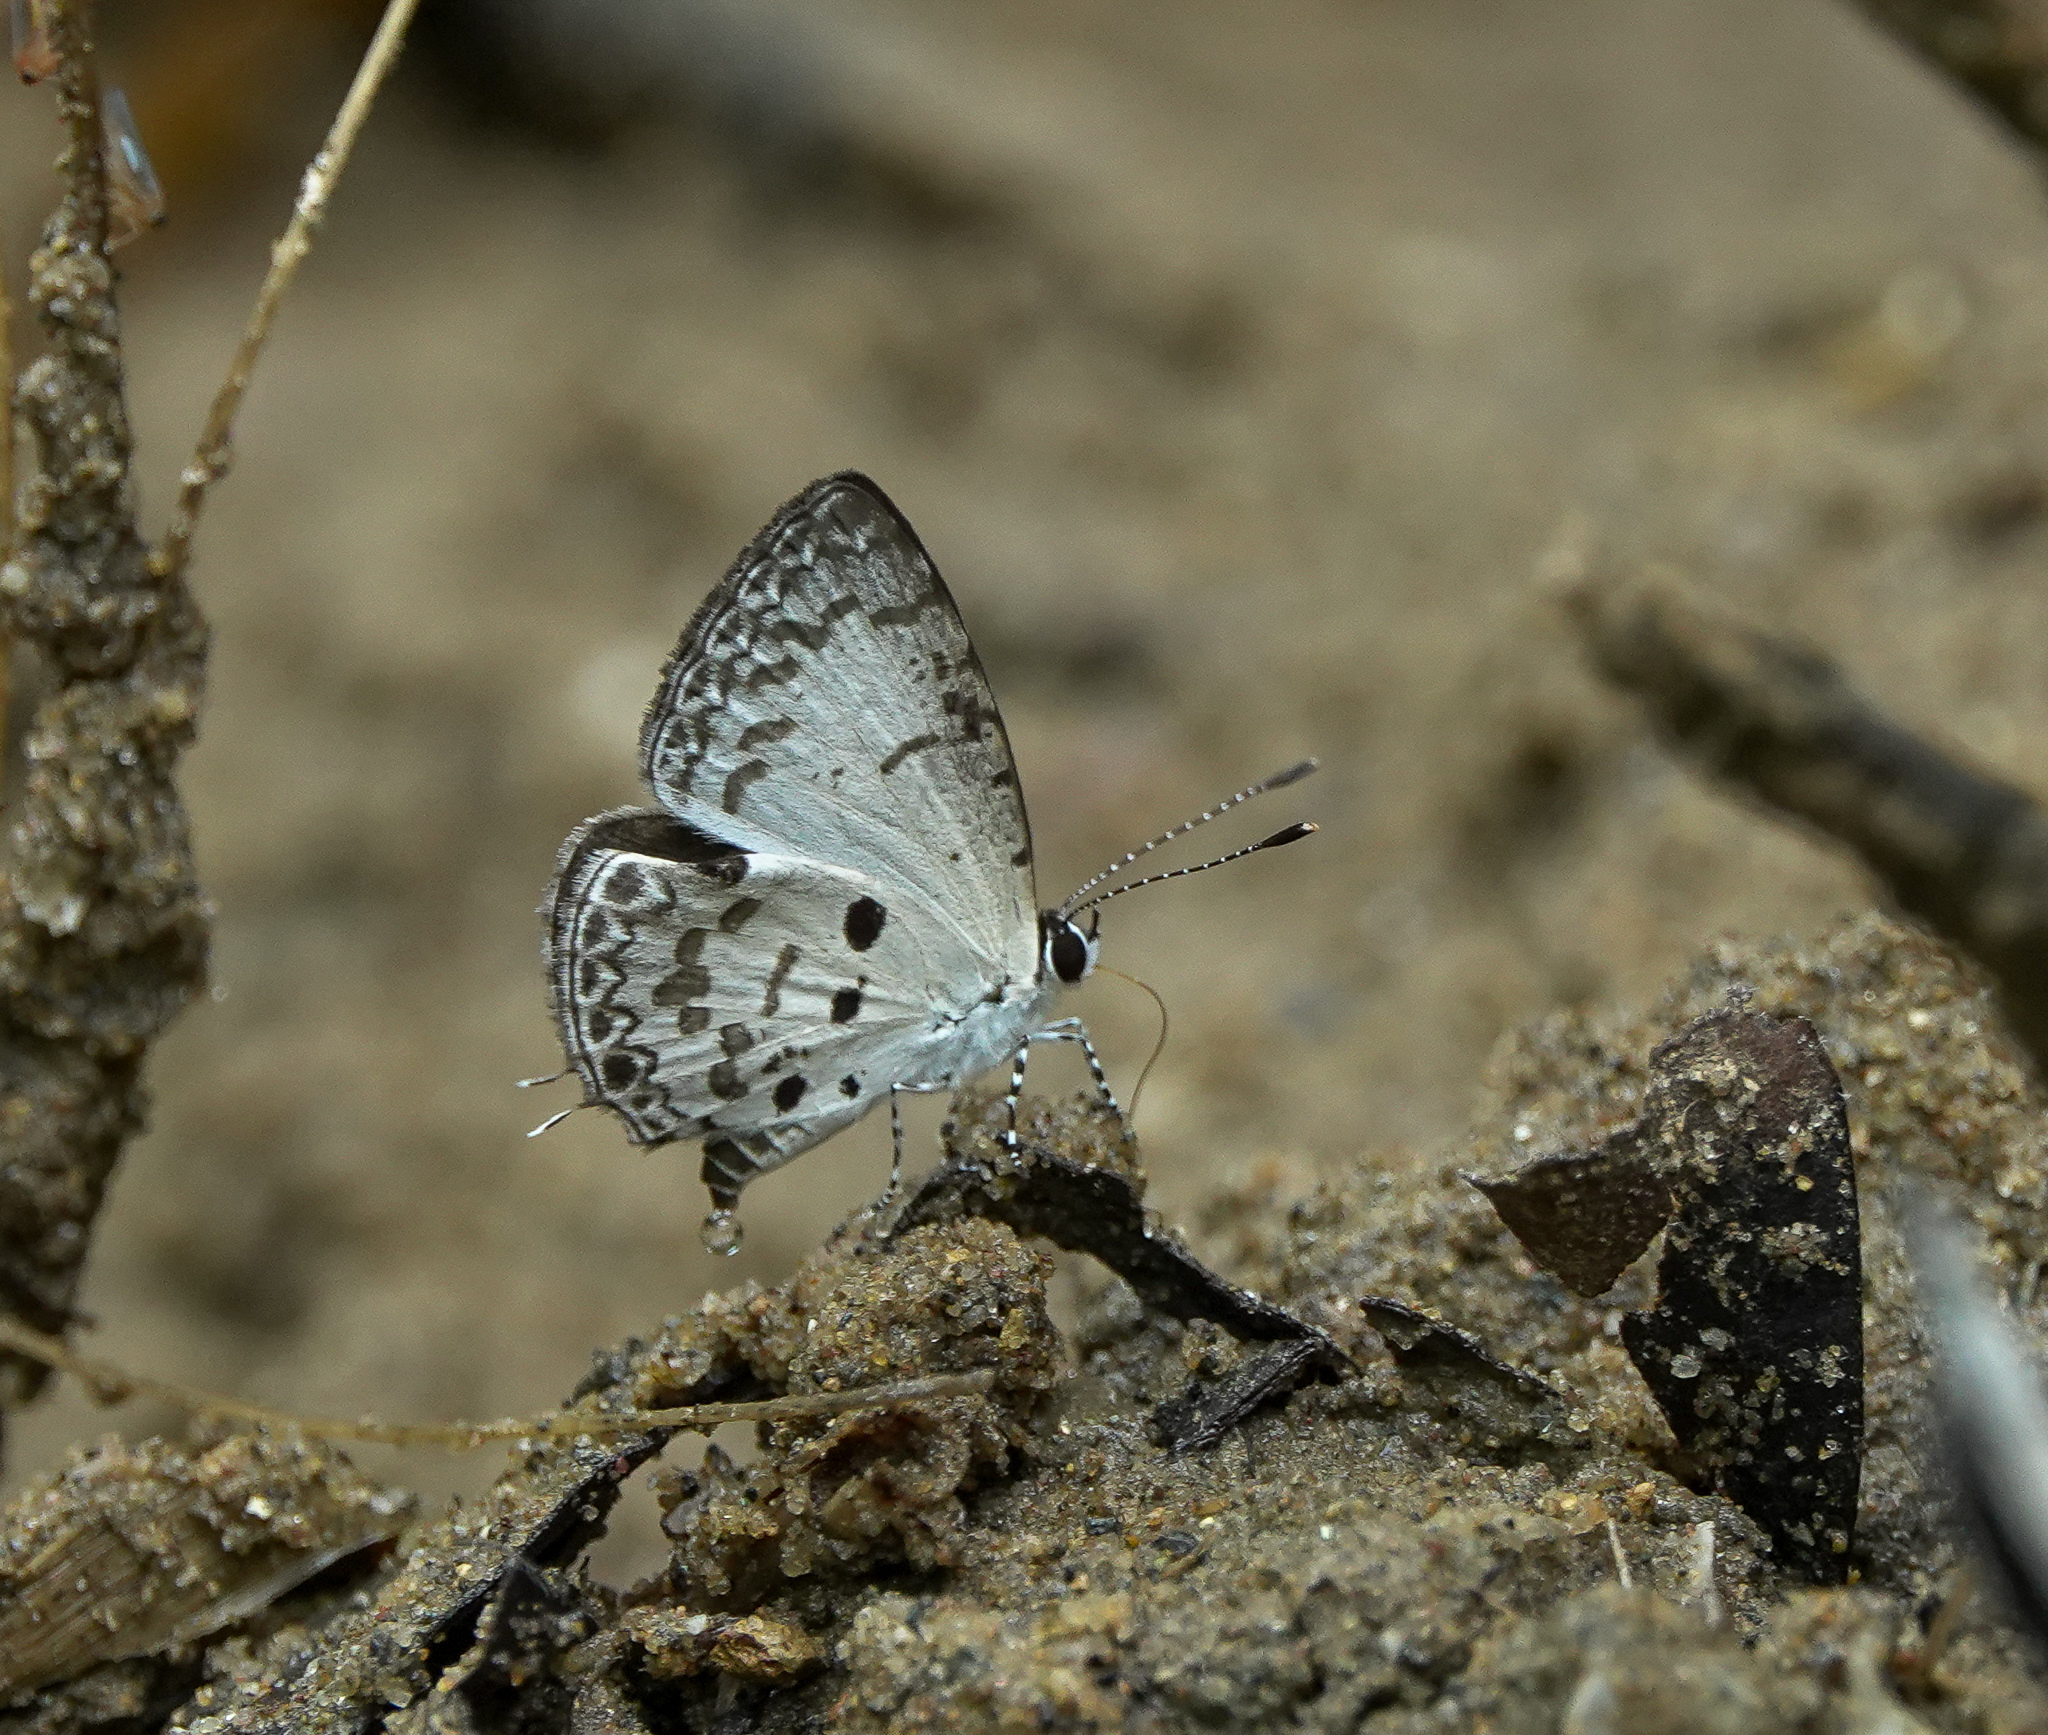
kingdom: Animalia
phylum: Arthropoda
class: Insecta
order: Lepidoptera
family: Lycaenidae
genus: Megisba
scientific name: Megisba malaya
